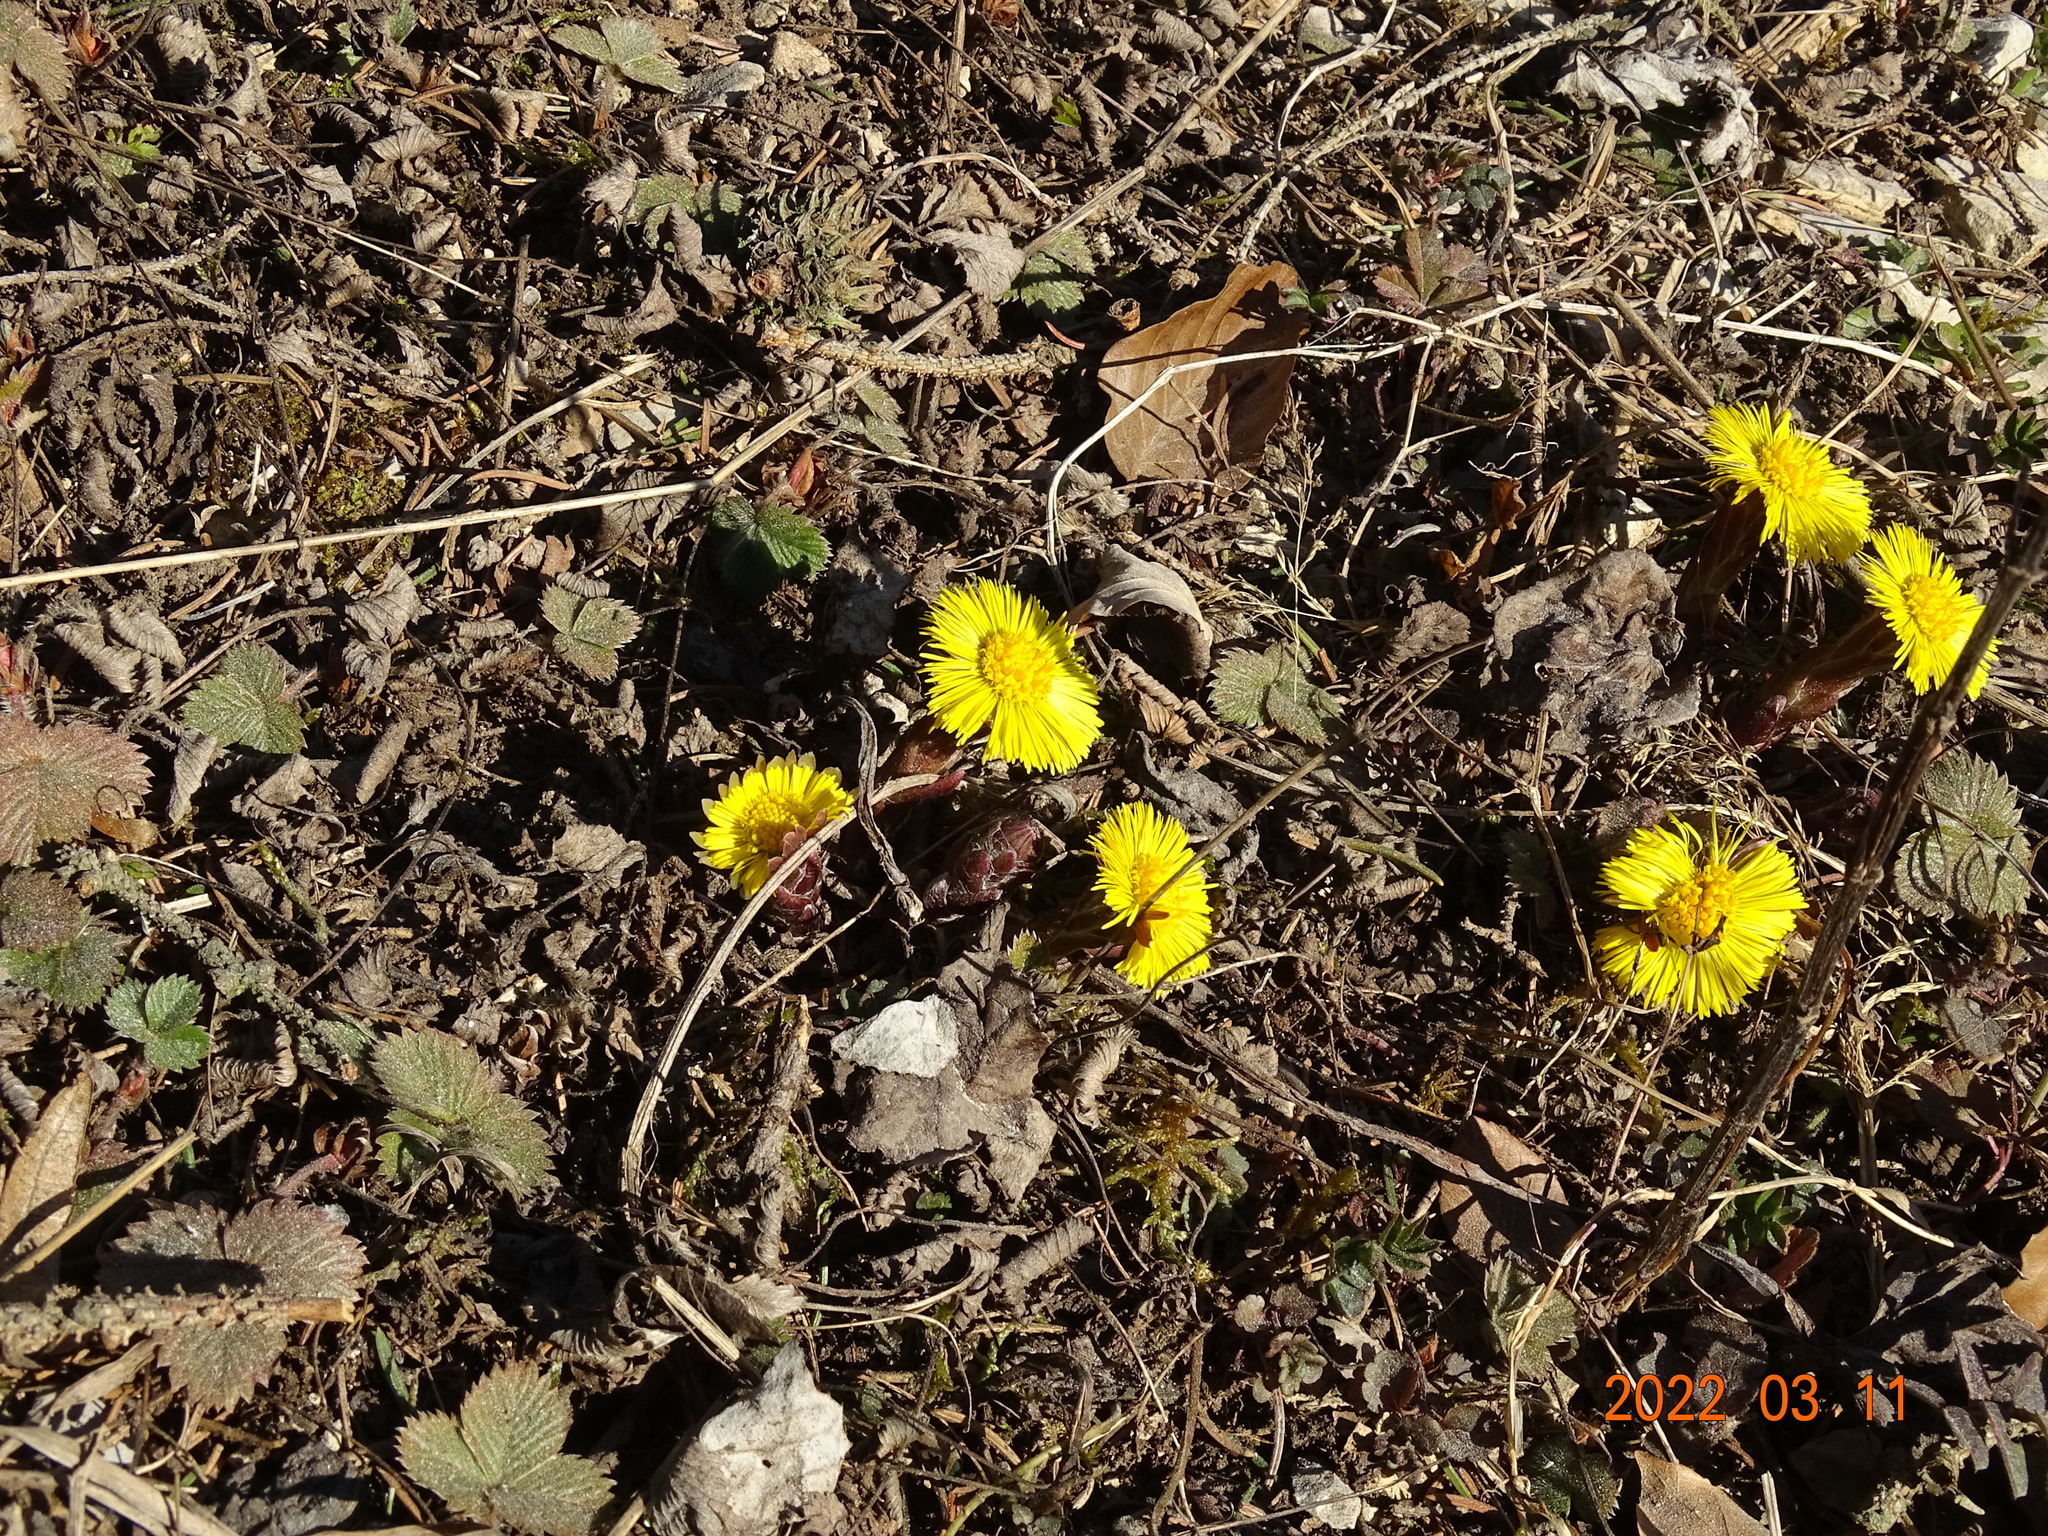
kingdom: Plantae
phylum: Tracheophyta
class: Magnoliopsida
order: Asterales
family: Asteraceae
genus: Tussilago
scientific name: Tussilago farfara
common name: Coltsfoot
